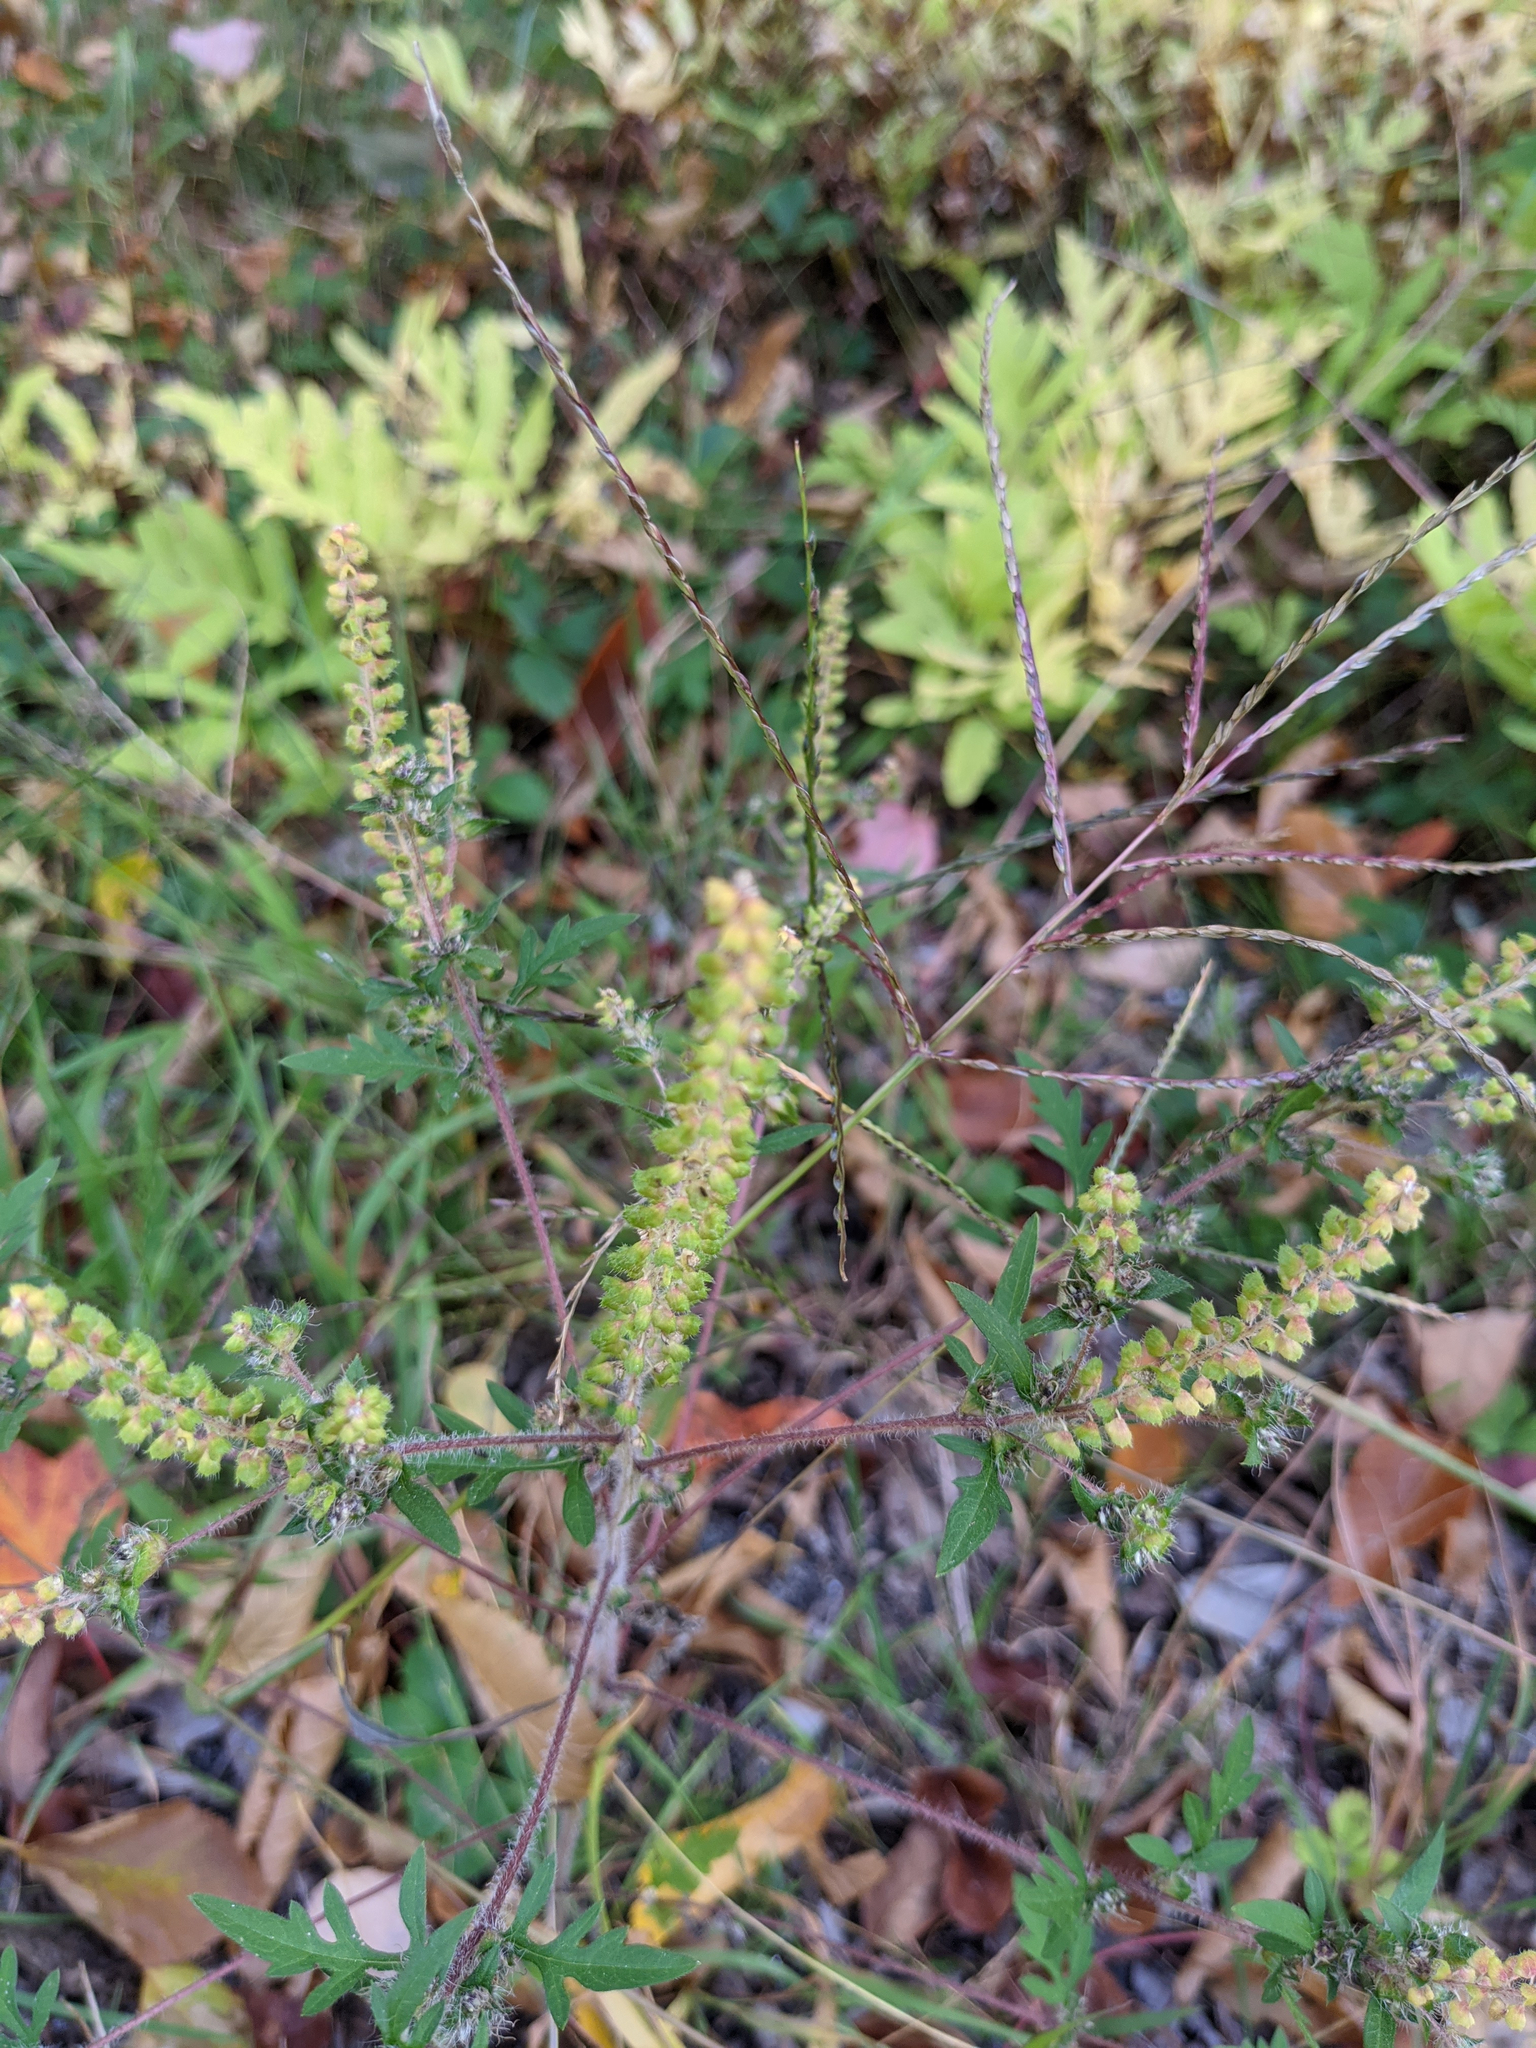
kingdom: Plantae
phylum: Tracheophyta
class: Magnoliopsida
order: Asterales
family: Asteraceae
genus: Ambrosia
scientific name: Ambrosia artemisiifolia
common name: Annual ragweed
